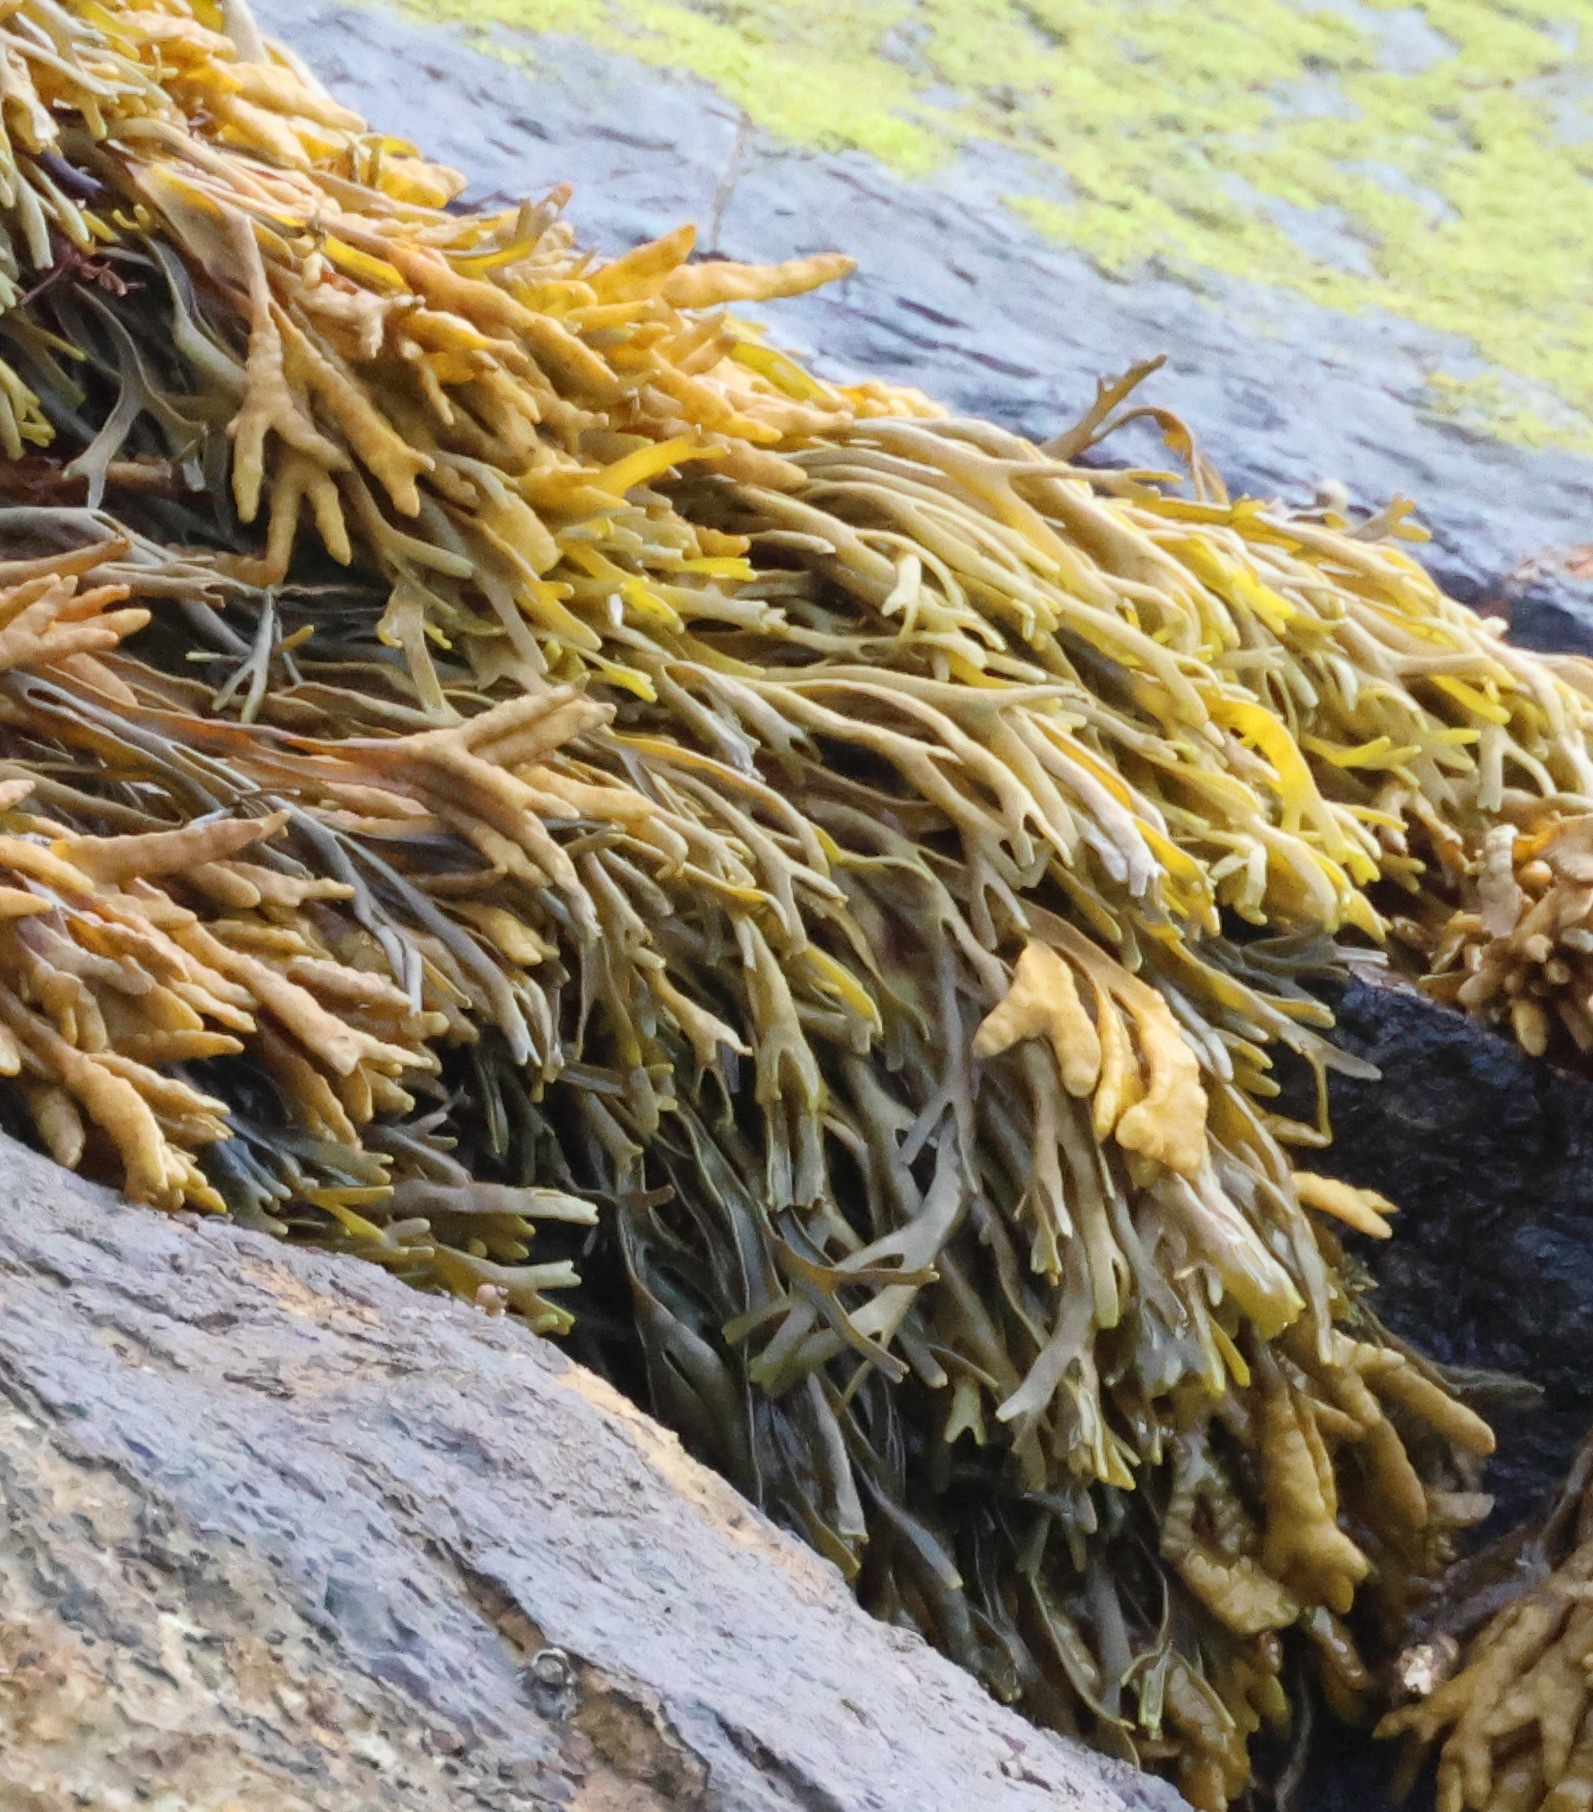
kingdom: Chromista
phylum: Ochrophyta
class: Phaeophyceae
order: Fucales
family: Fucaceae
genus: Pelvetia
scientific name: Pelvetia canaliculata
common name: Channelled wrack
